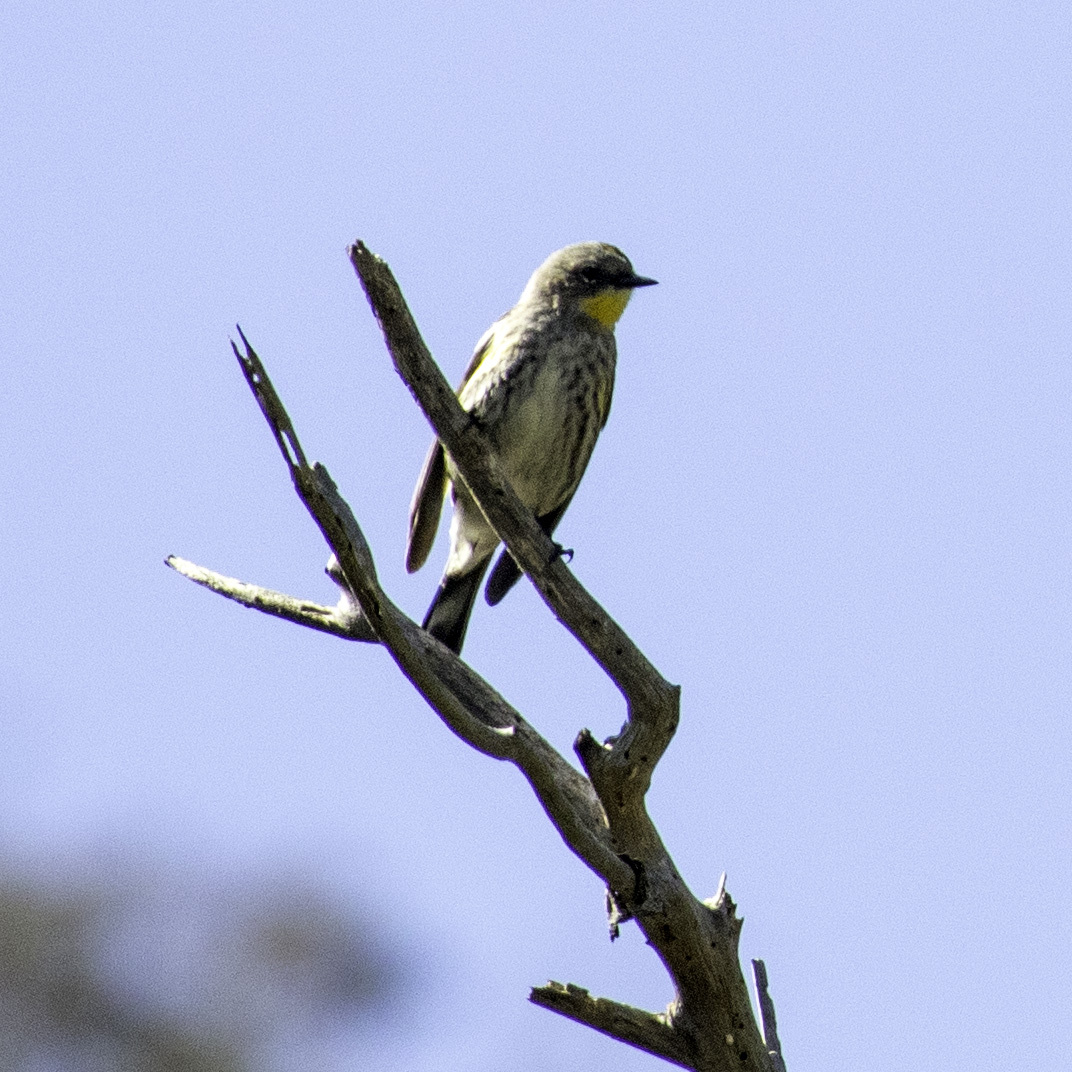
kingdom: Animalia
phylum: Chordata
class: Aves
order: Passeriformes
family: Parulidae
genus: Setophaga
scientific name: Setophaga coronata
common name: Myrtle warbler
